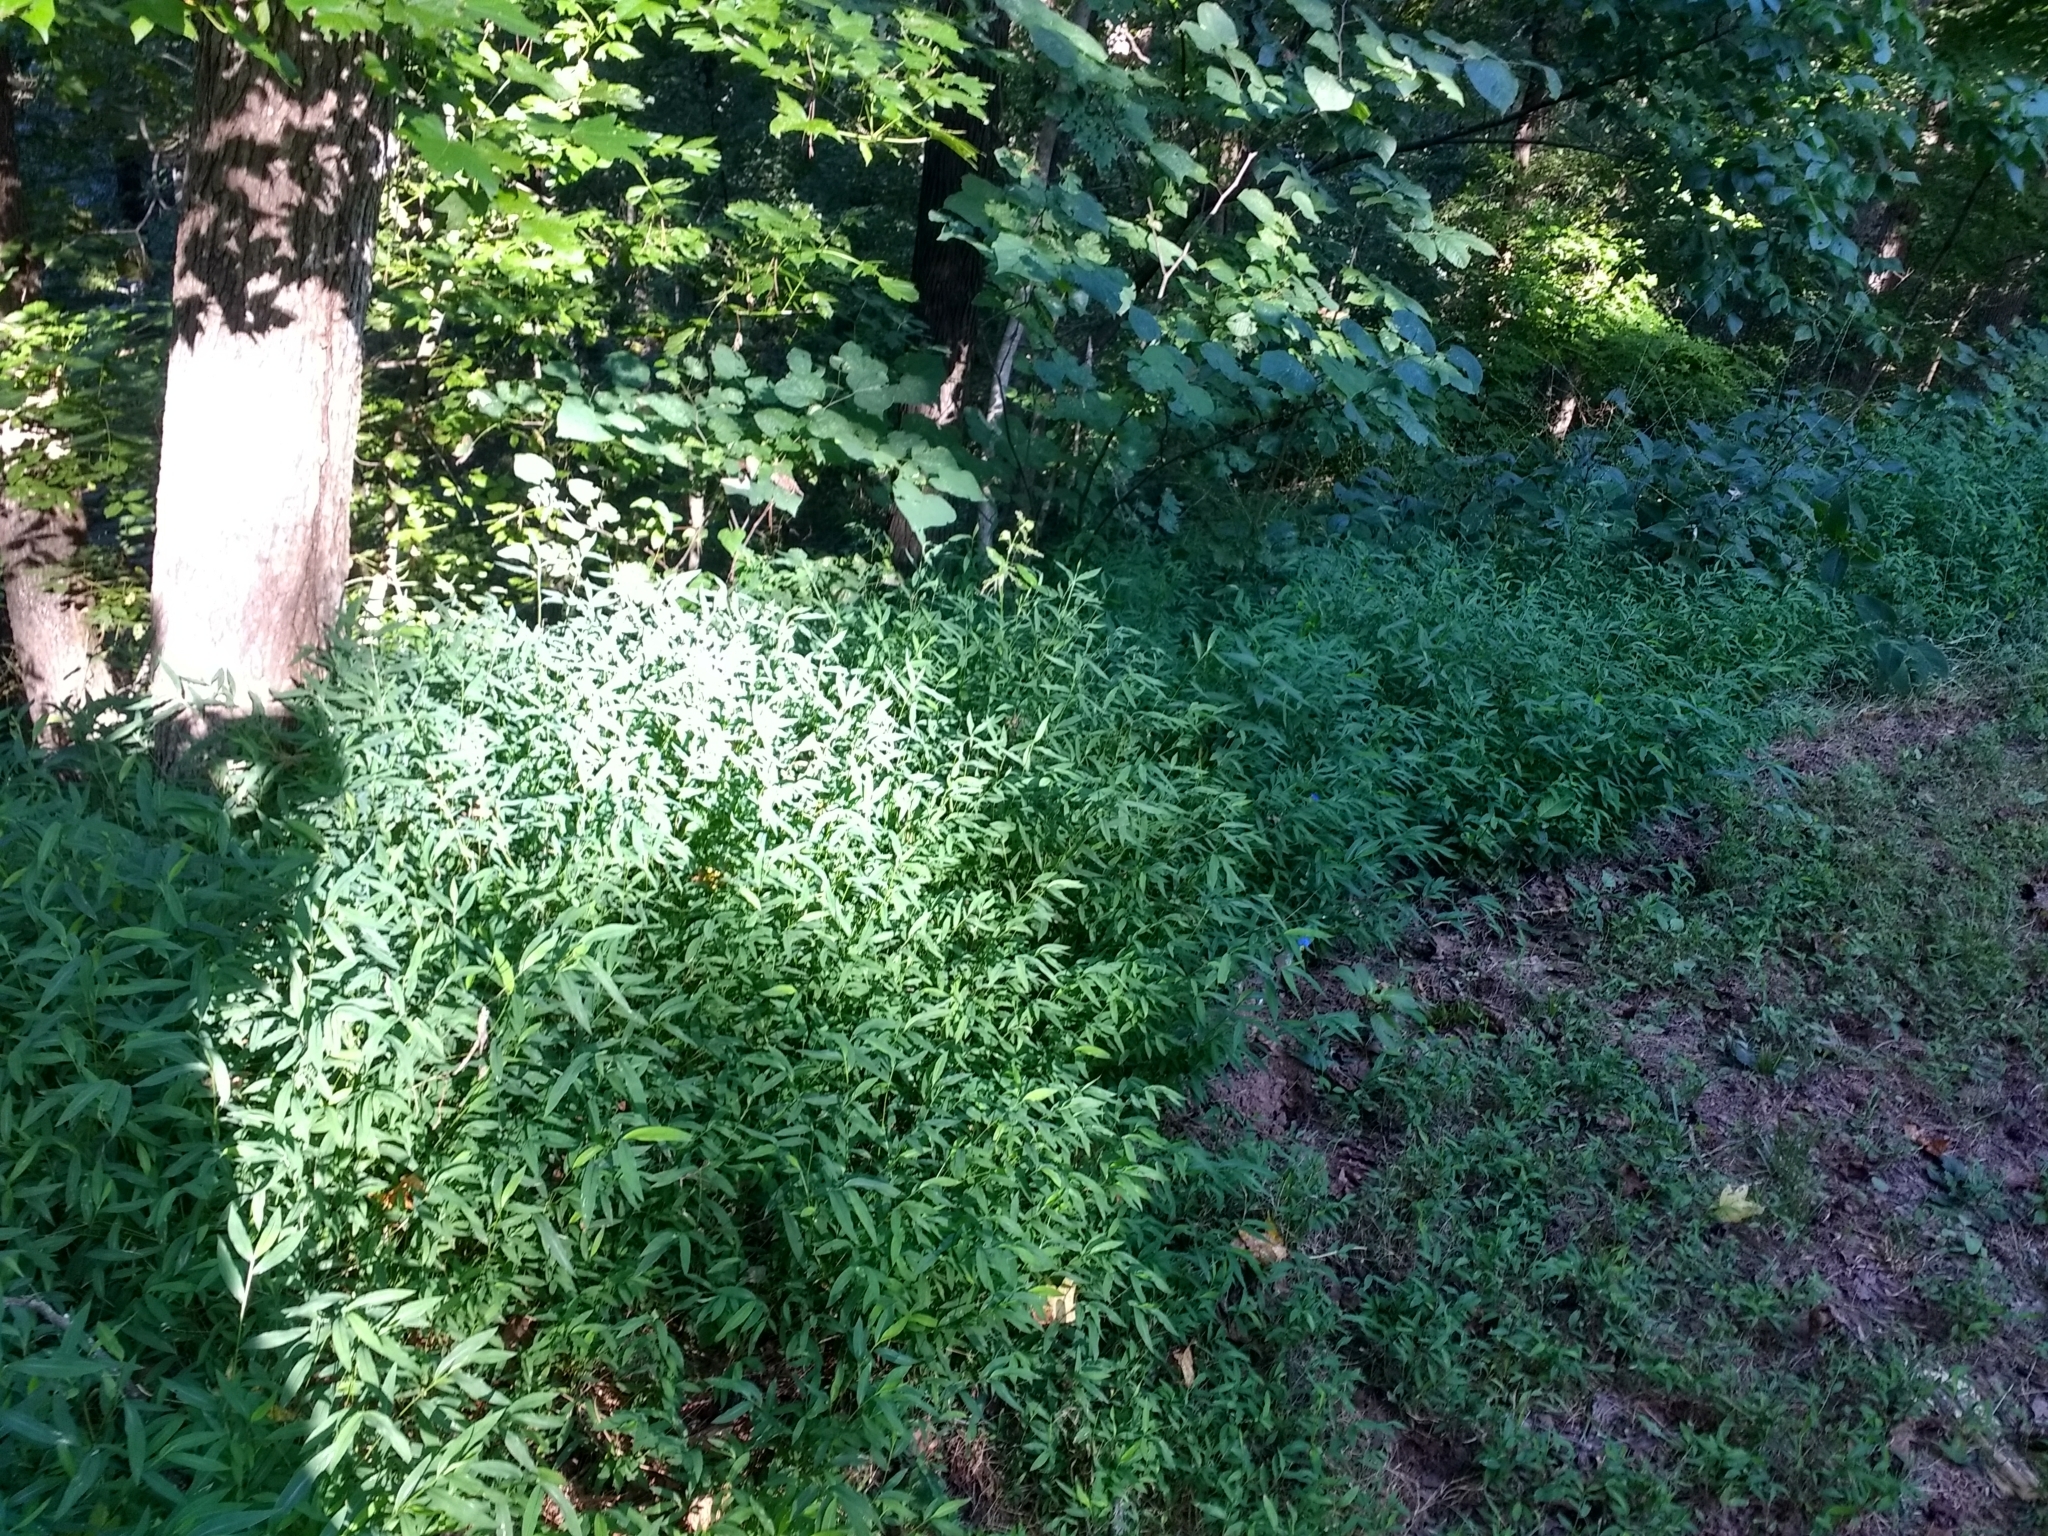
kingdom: Plantae
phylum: Tracheophyta
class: Liliopsida
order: Poales
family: Poaceae
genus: Microstegium
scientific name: Microstegium vimineum
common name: Japanese stiltgrass
